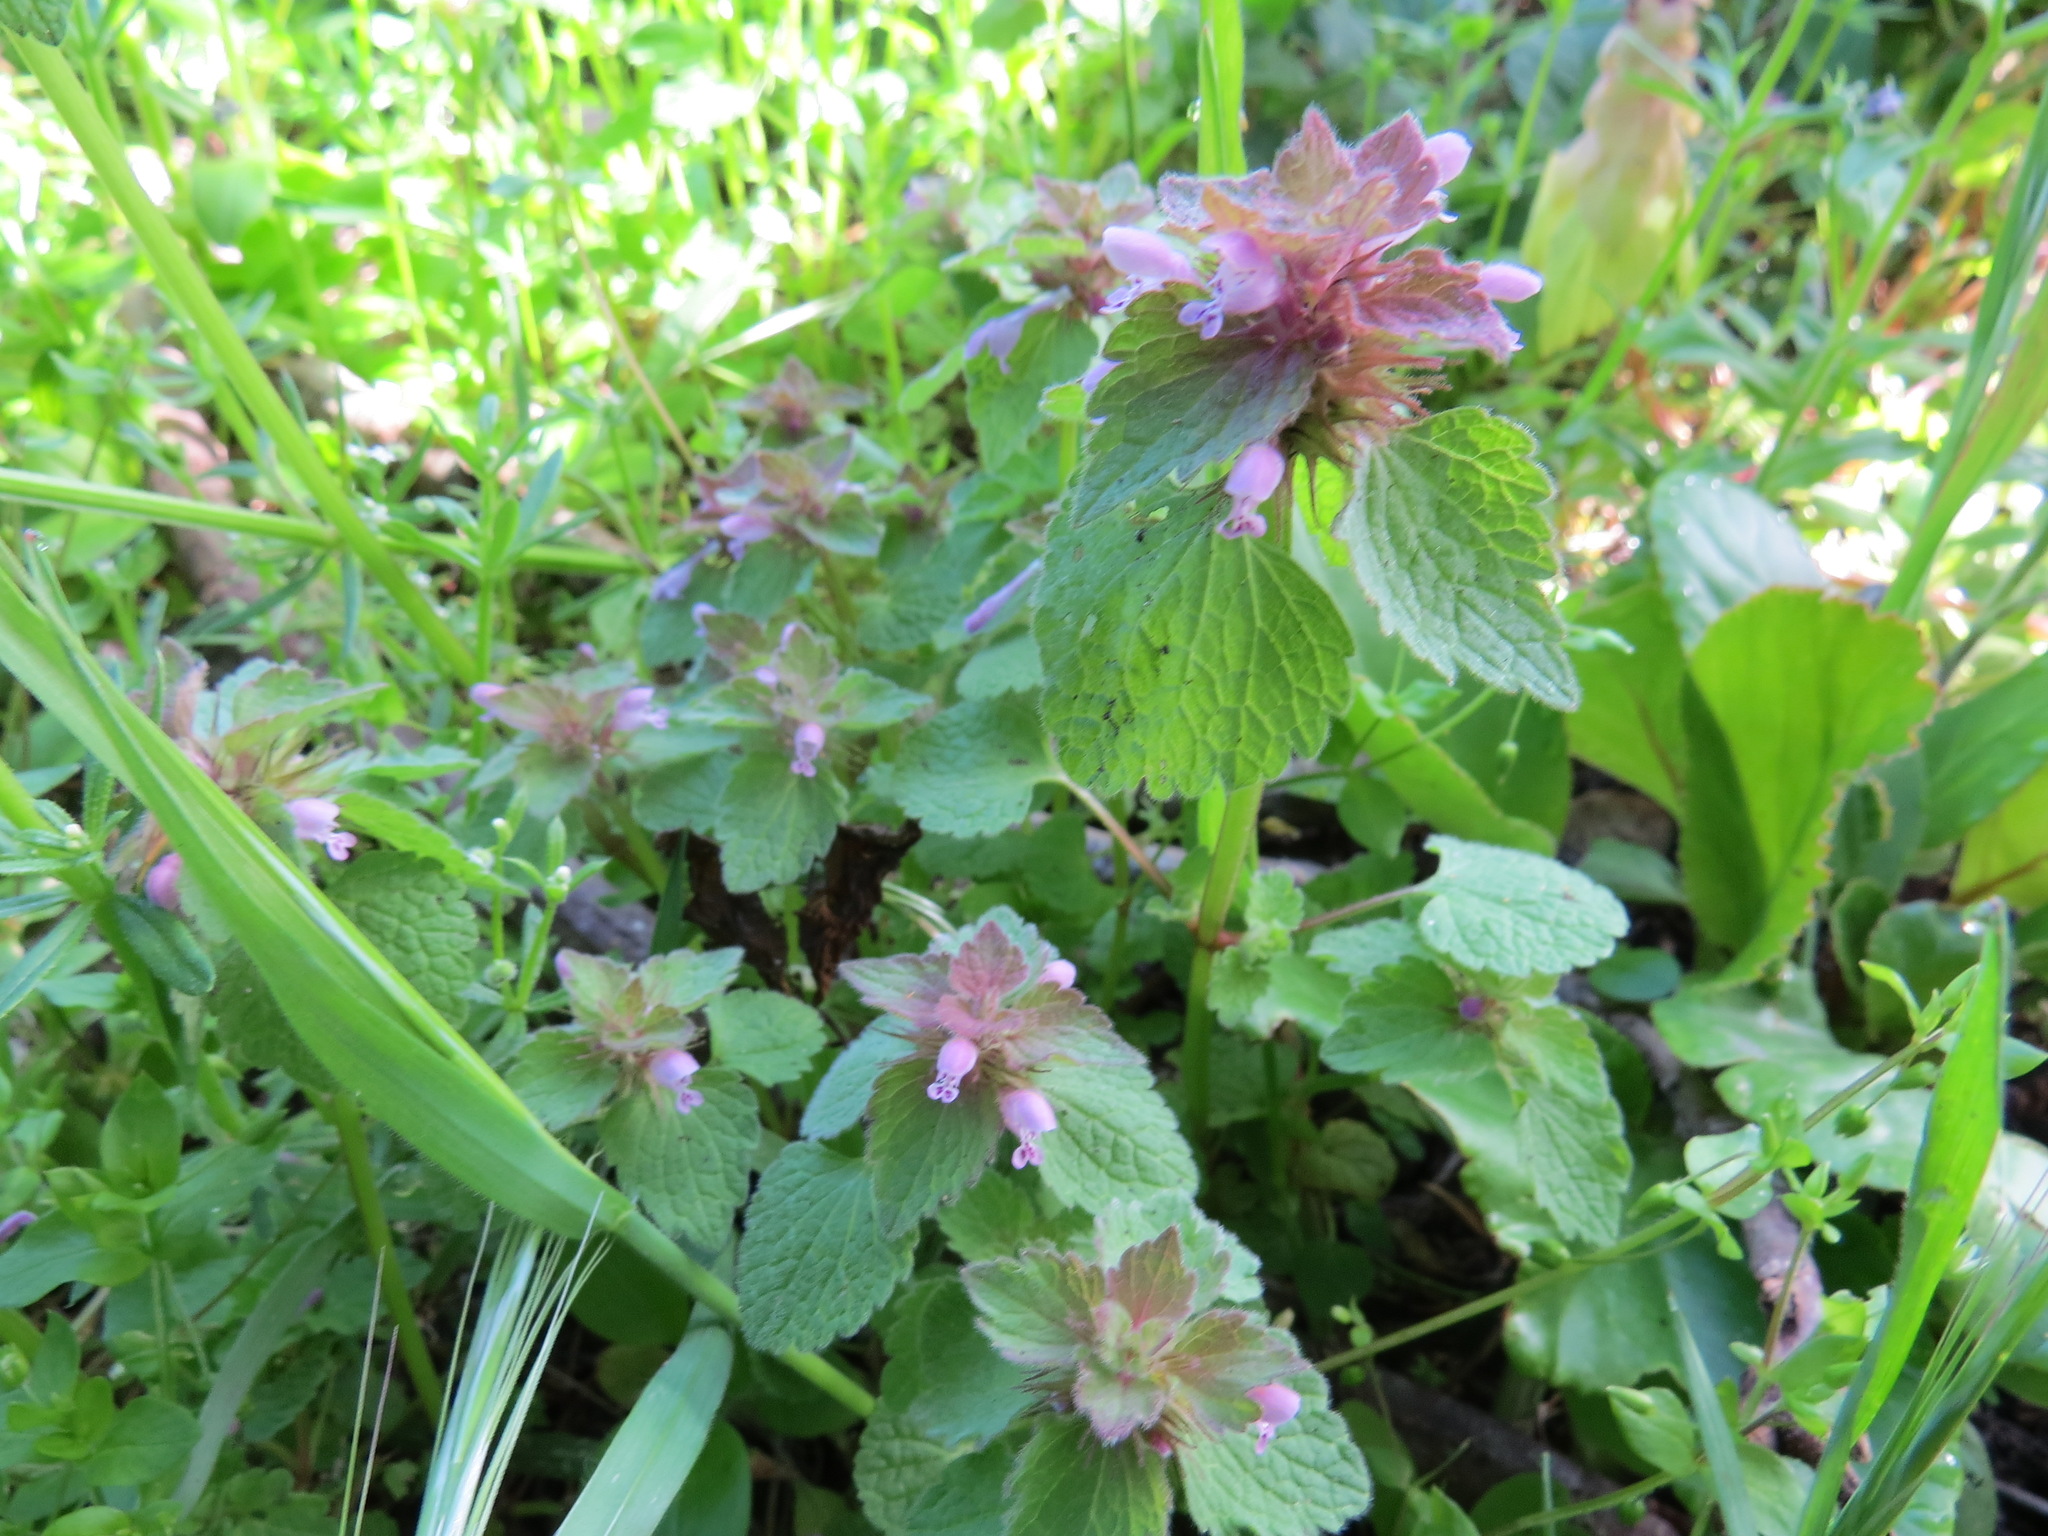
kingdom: Plantae
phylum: Tracheophyta
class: Magnoliopsida
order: Lamiales
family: Lamiaceae
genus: Lamium
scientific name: Lamium purpureum
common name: Red dead-nettle
